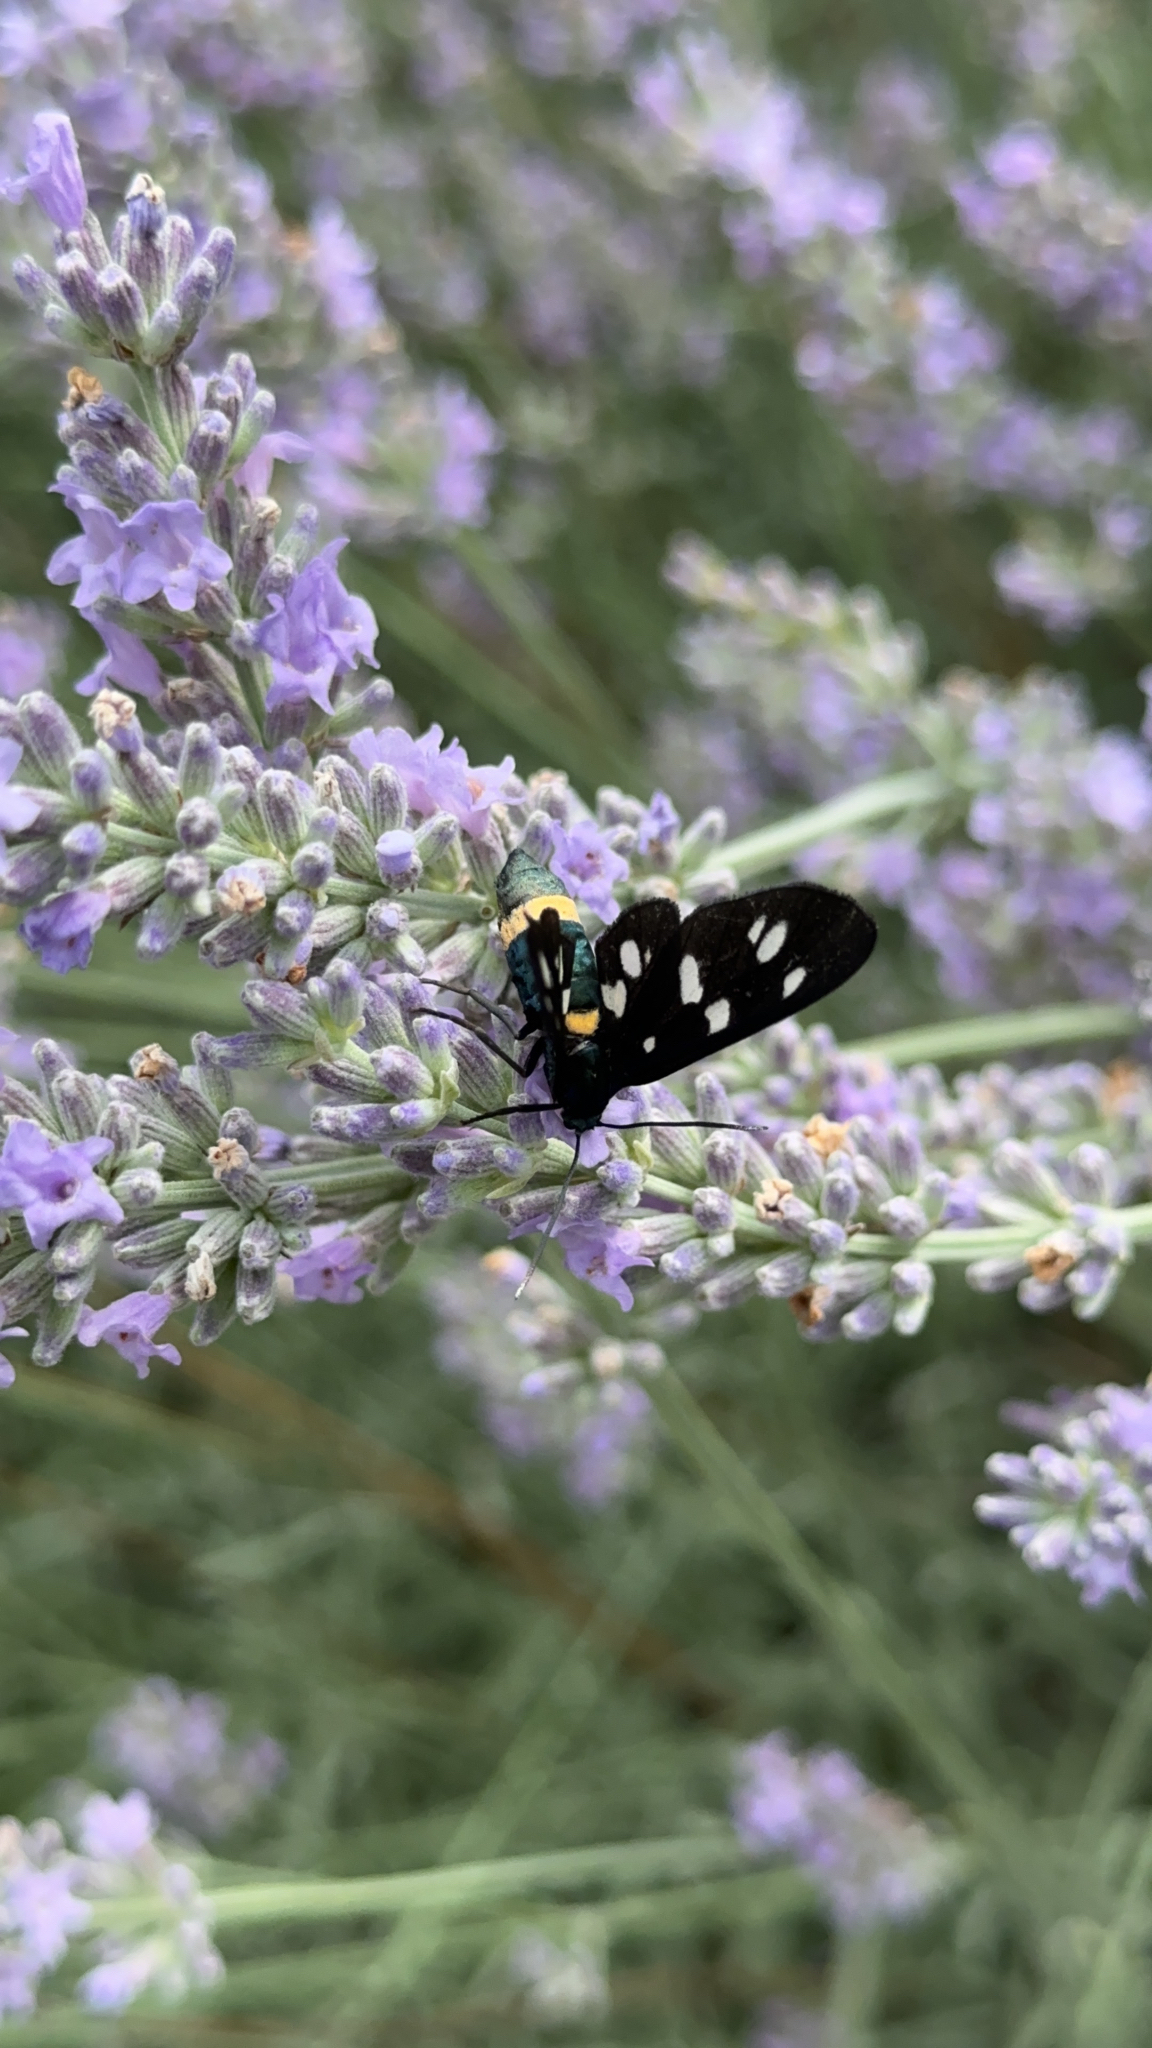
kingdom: Animalia
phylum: Arthropoda
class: Insecta
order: Lepidoptera
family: Erebidae
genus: Amata
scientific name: Amata phegea
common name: Nine-spotted
